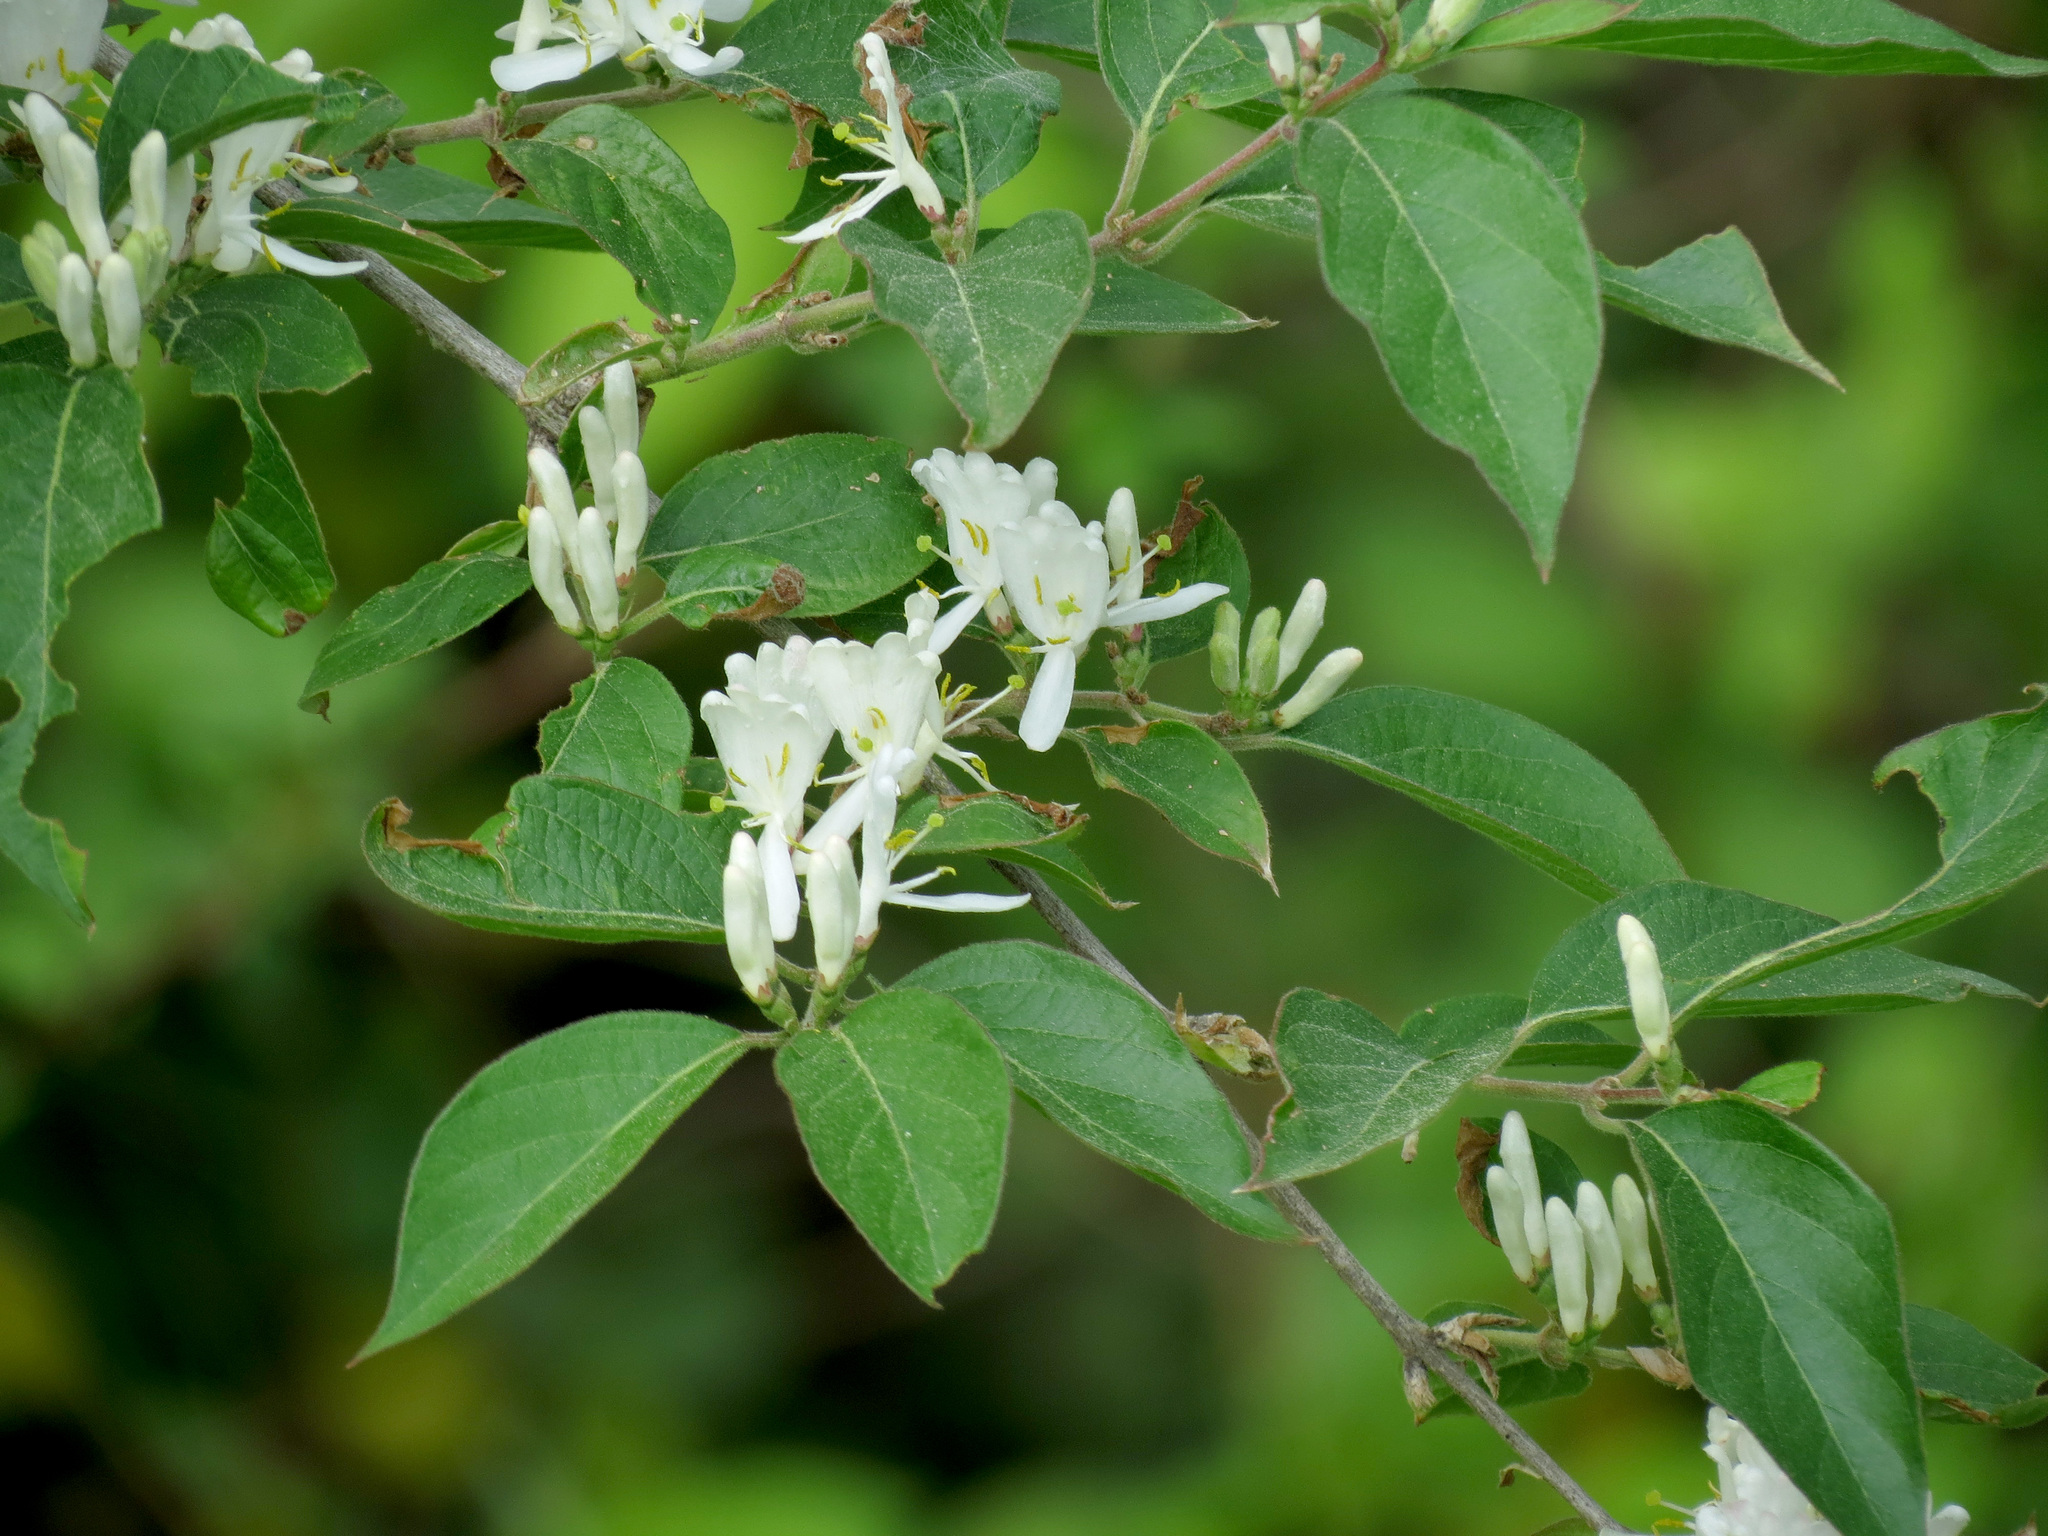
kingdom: Plantae
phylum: Tracheophyta
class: Magnoliopsida
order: Dipsacales
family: Caprifoliaceae
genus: Lonicera
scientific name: Lonicera maackii
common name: Amur honeysuckle
